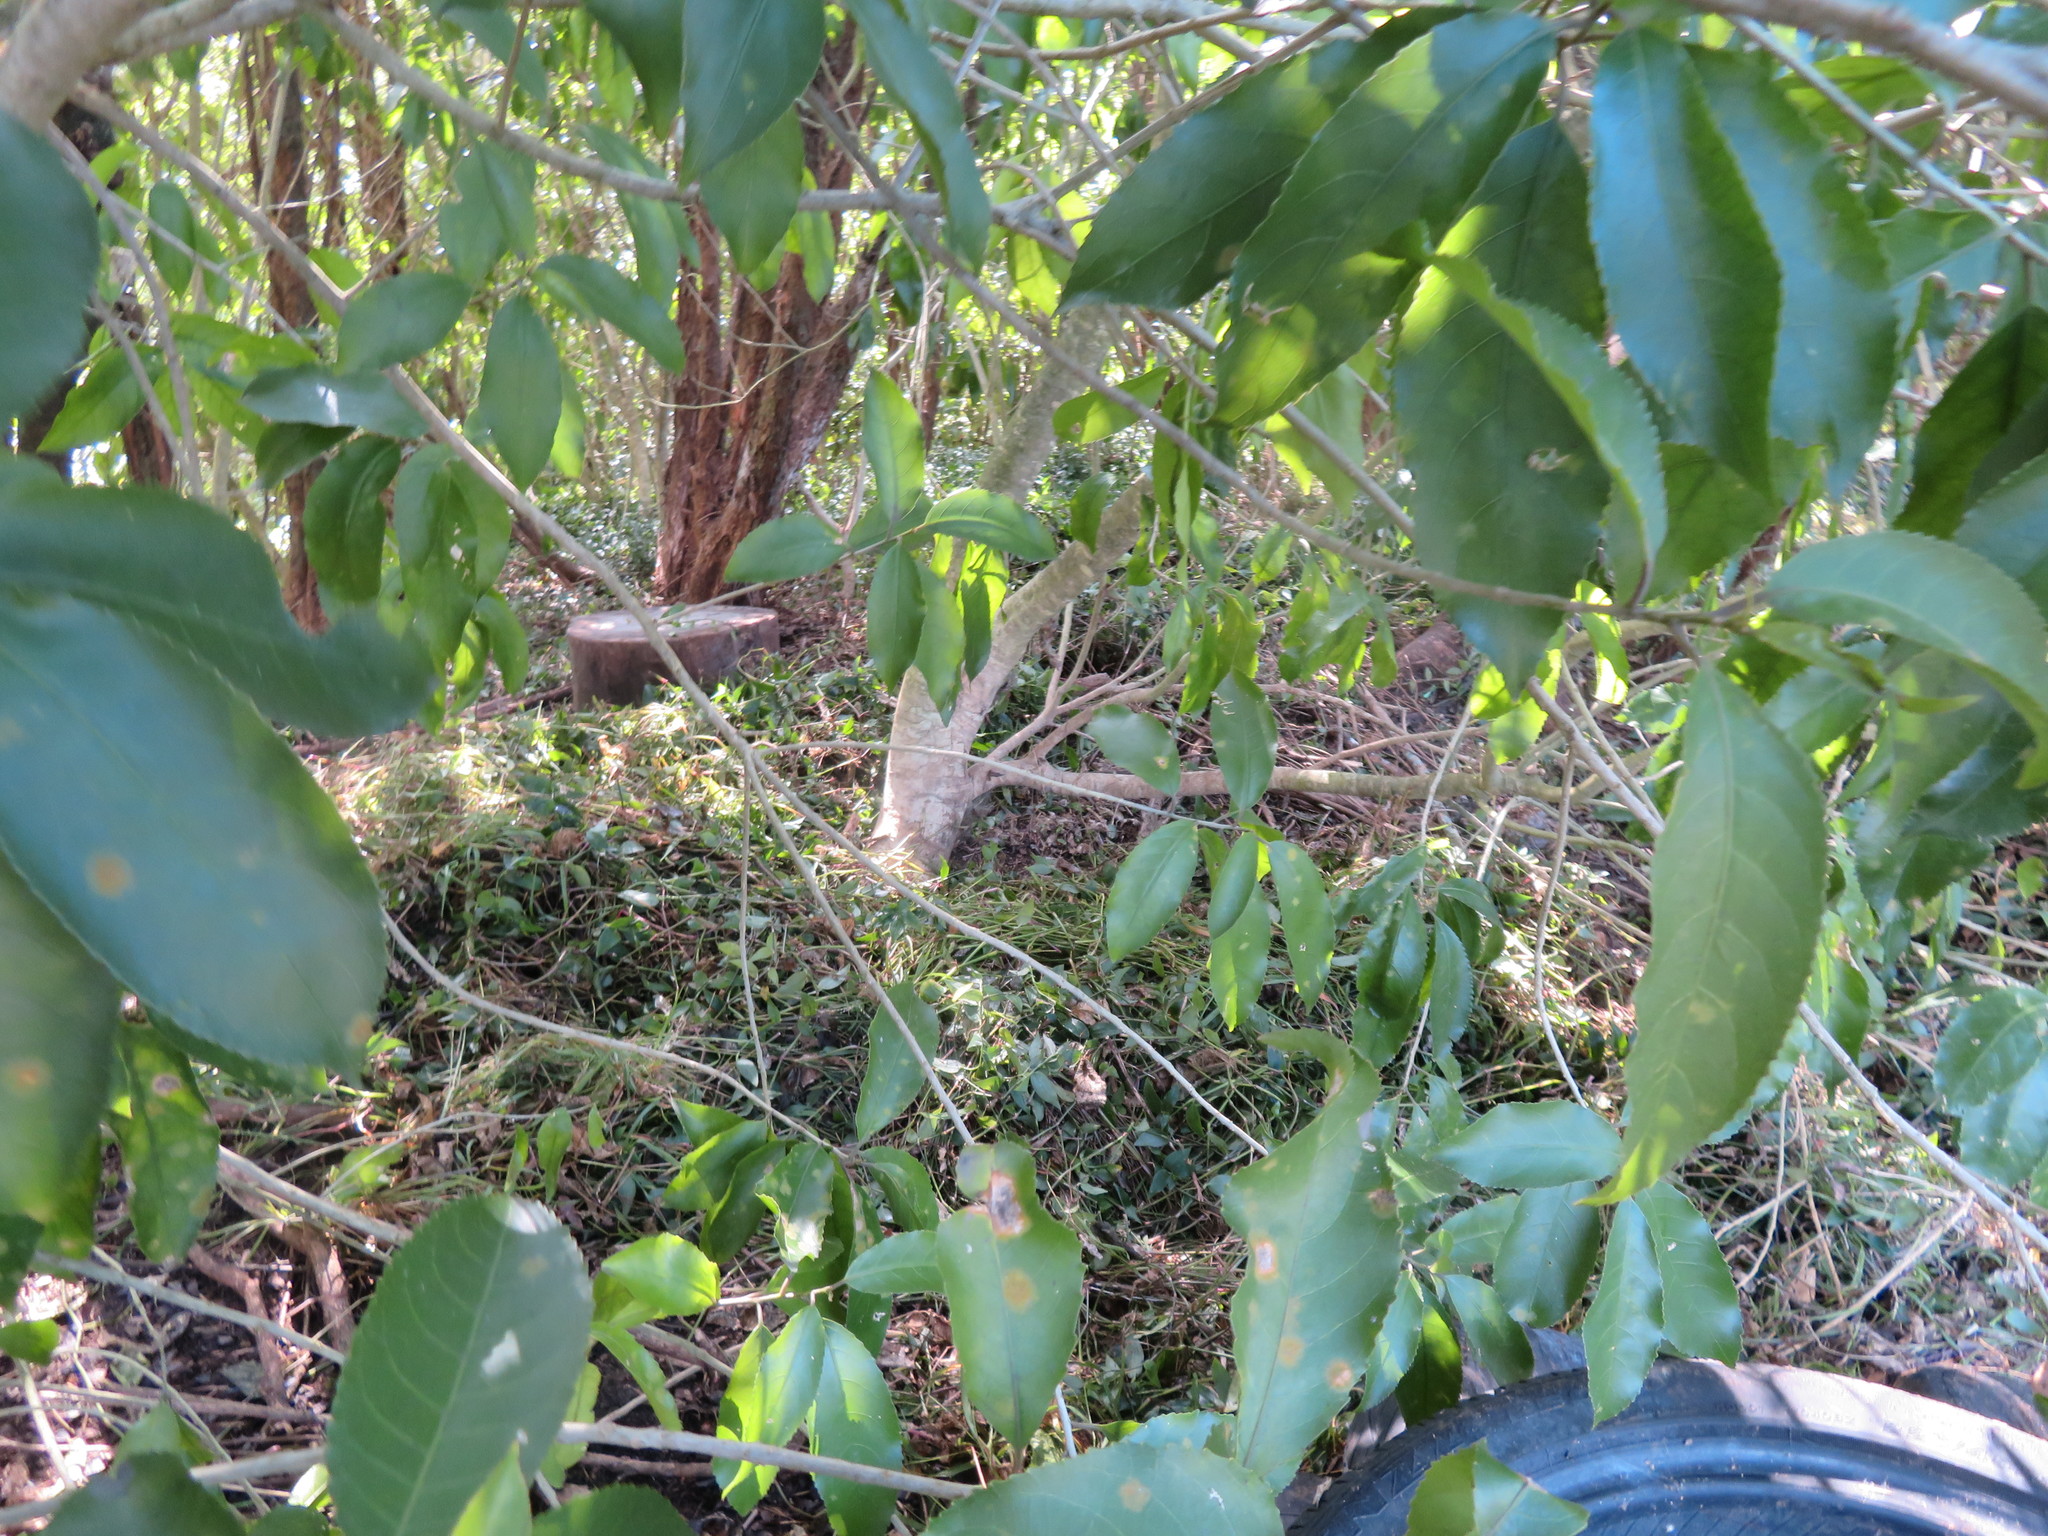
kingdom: Plantae
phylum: Tracheophyta
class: Liliopsida
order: Commelinales
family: Commelinaceae
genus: Tradescantia
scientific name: Tradescantia fluminensis
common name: Wandering-jew
